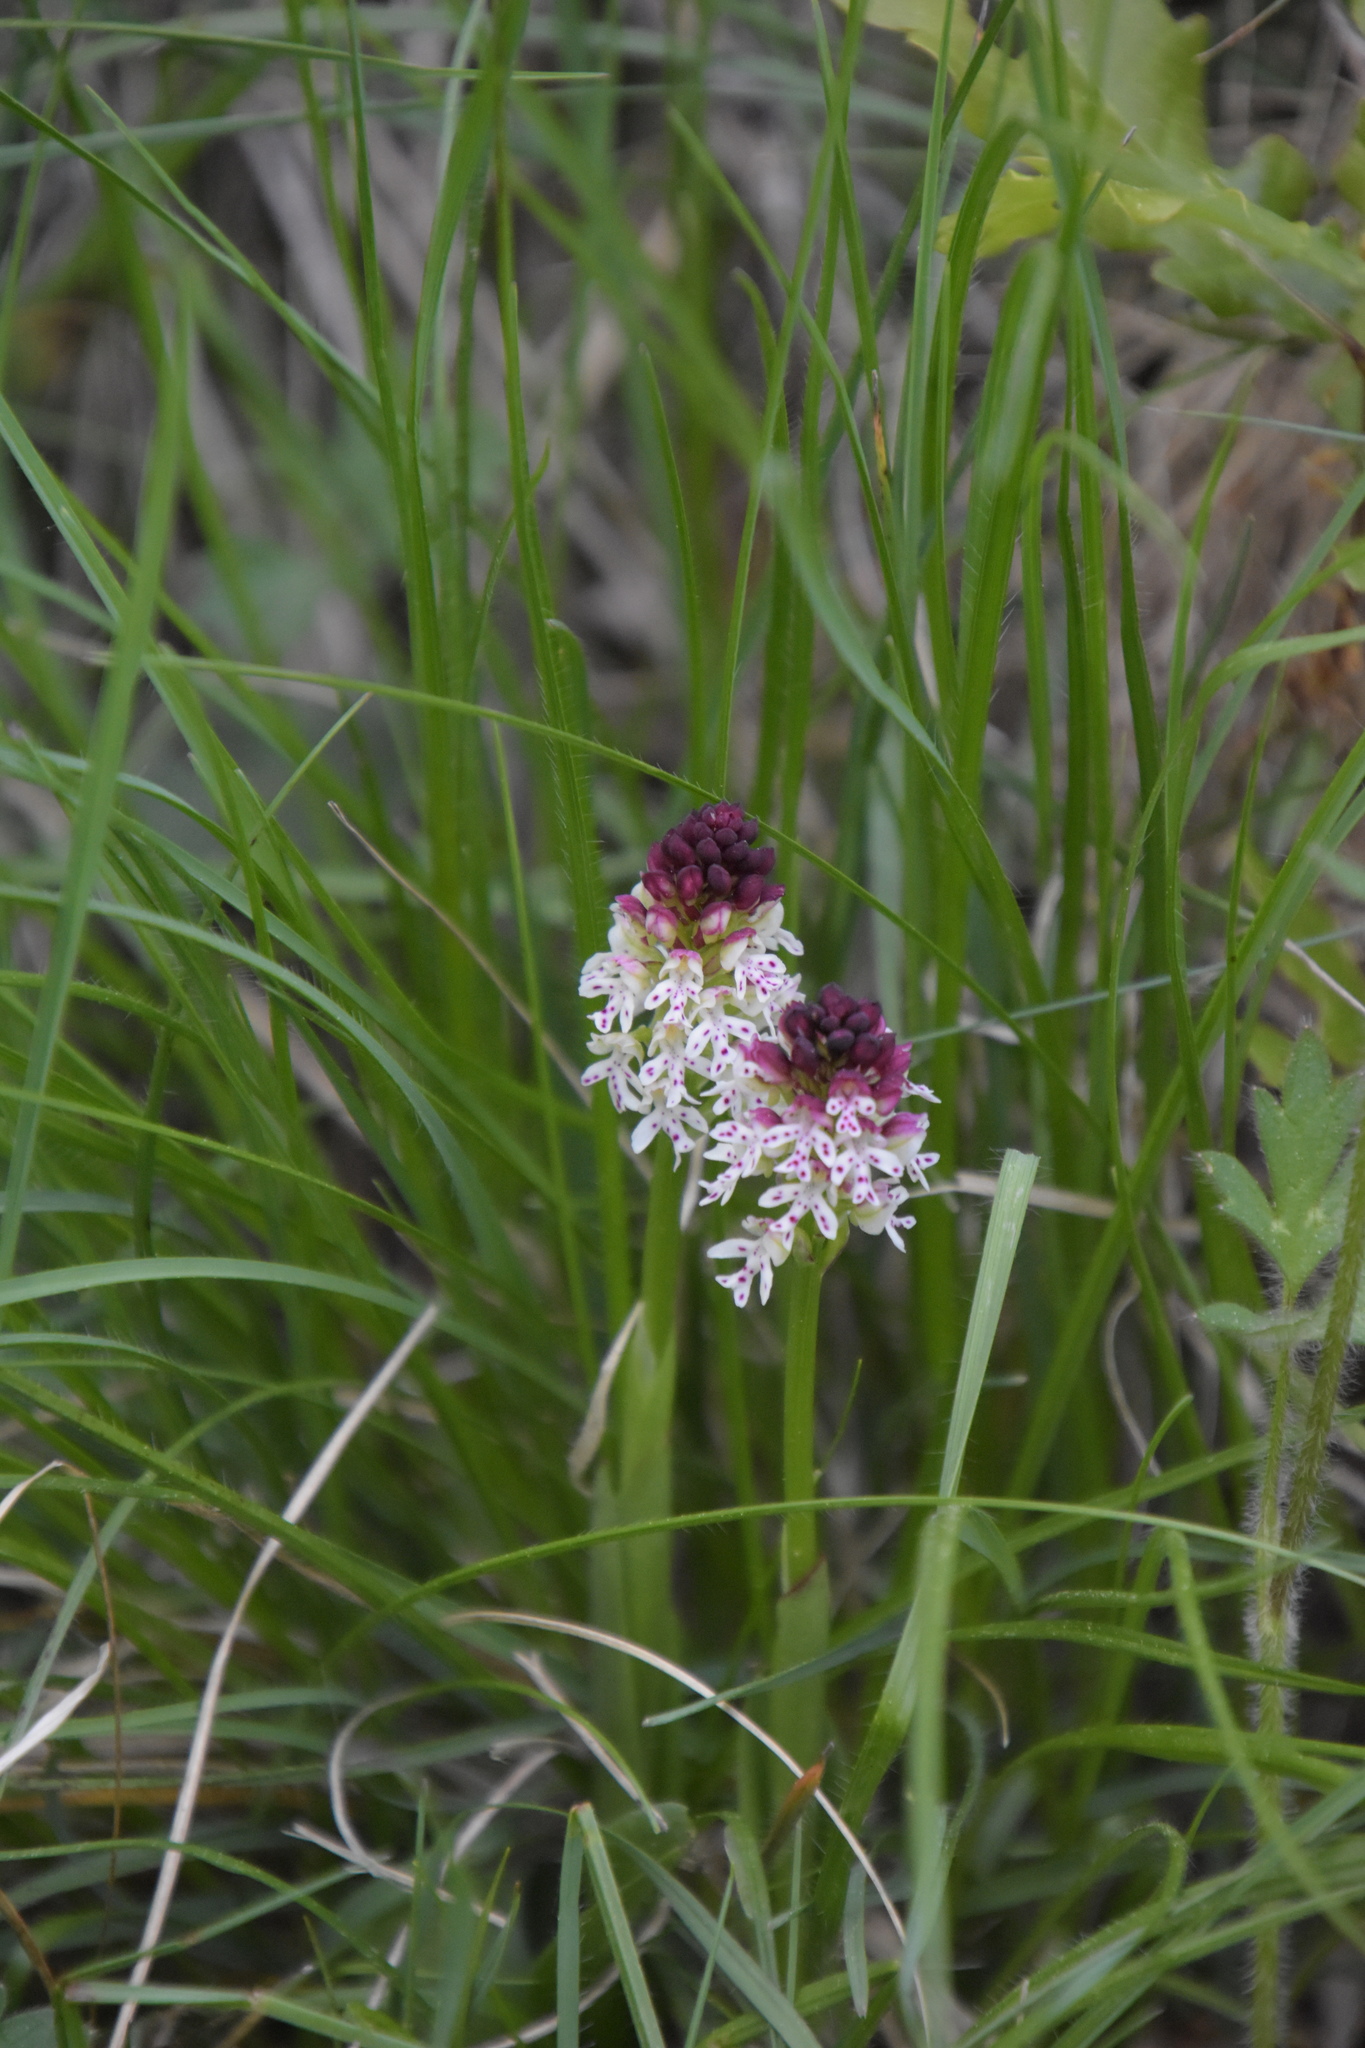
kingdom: Plantae
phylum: Tracheophyta
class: Liliopsida
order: Asparagales
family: Orchidaceae
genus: Neotinea
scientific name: Neotinea ustulata
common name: Burnt orchid
